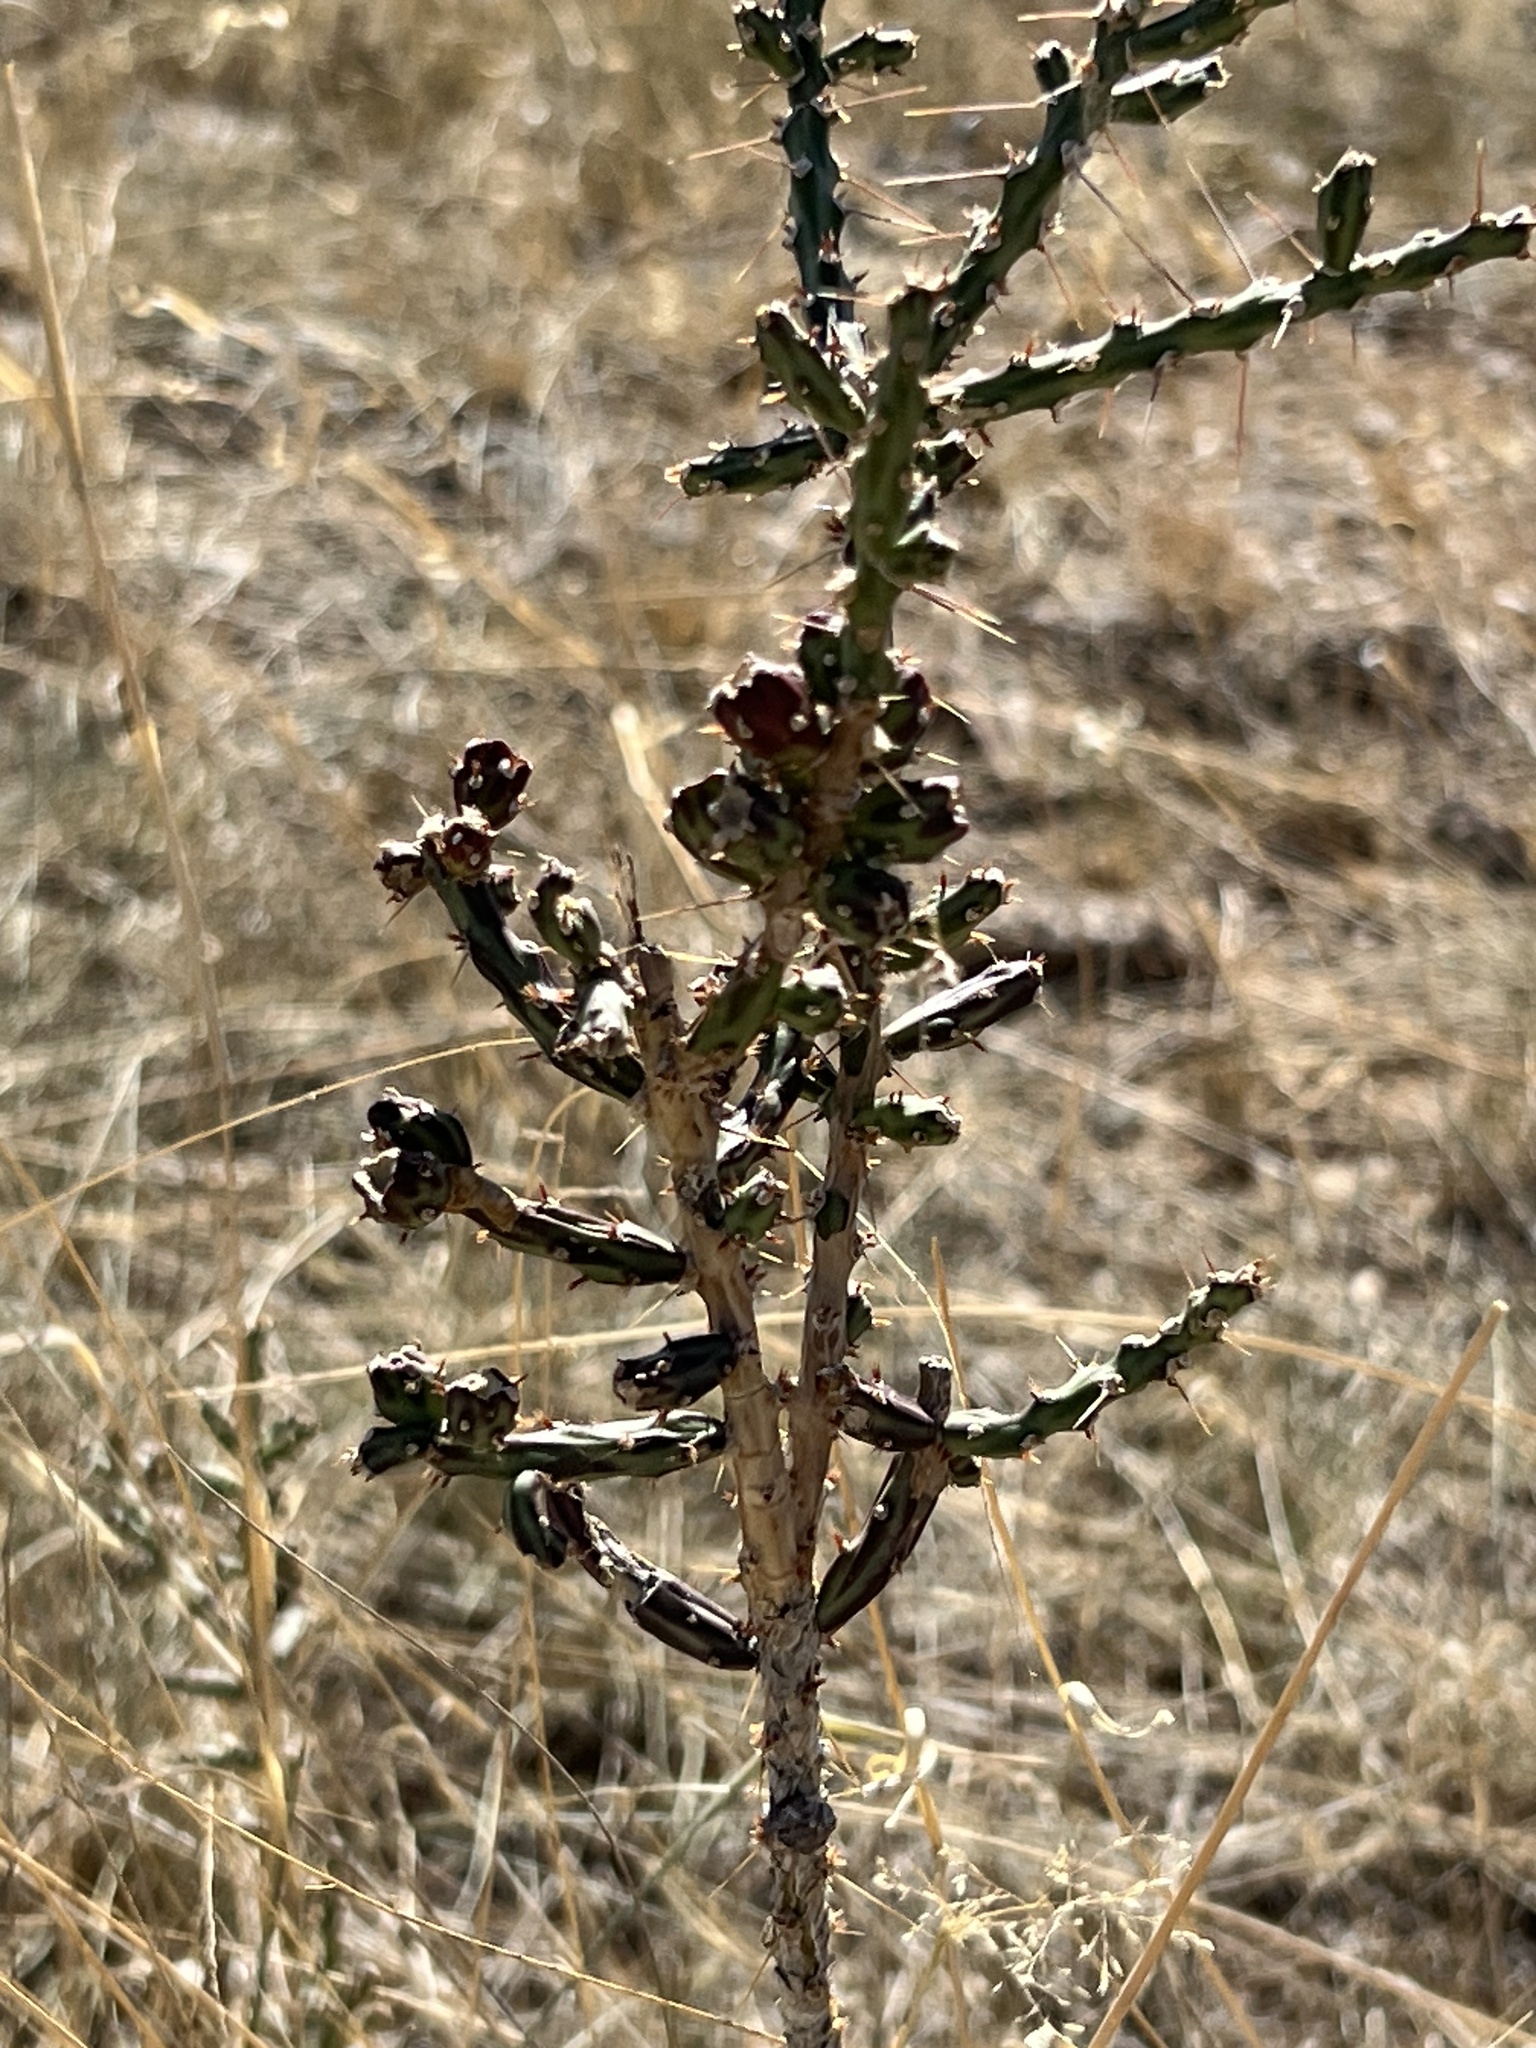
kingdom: Plantae
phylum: Tracheophyta
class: Magnoliopsida
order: Caryophyllales
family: Cactaceae
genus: Cylindropuntia
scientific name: Cylindropuntia leptocaulis
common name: Christmas cactus
